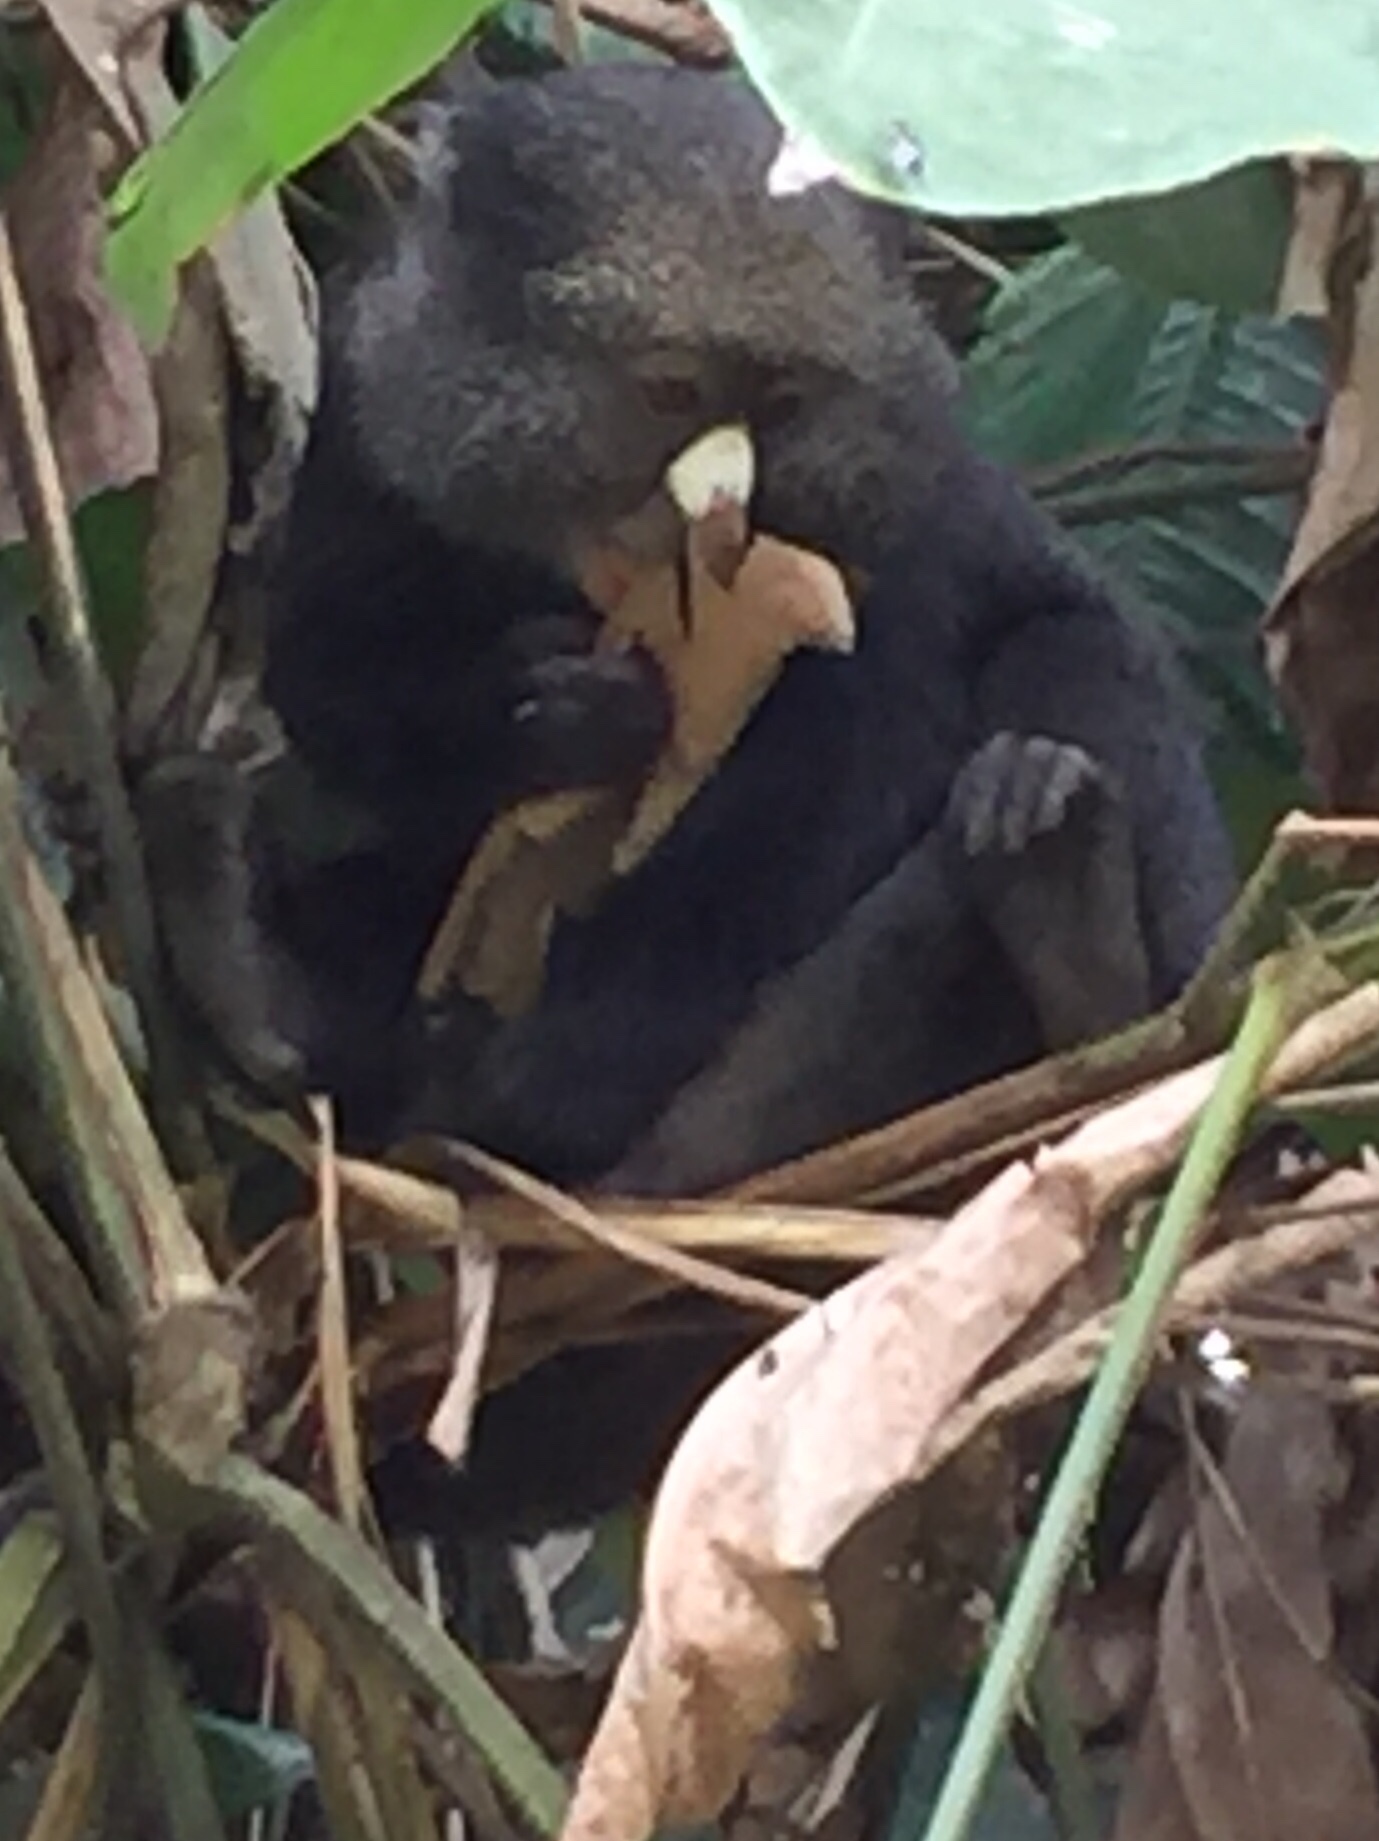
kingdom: Animalia
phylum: Chordata
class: Mammalia
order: Primates
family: Cercopithecidae
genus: Cercopithecus
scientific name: Cercopithecus nictitans
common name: Greater spot-nosed monkey
